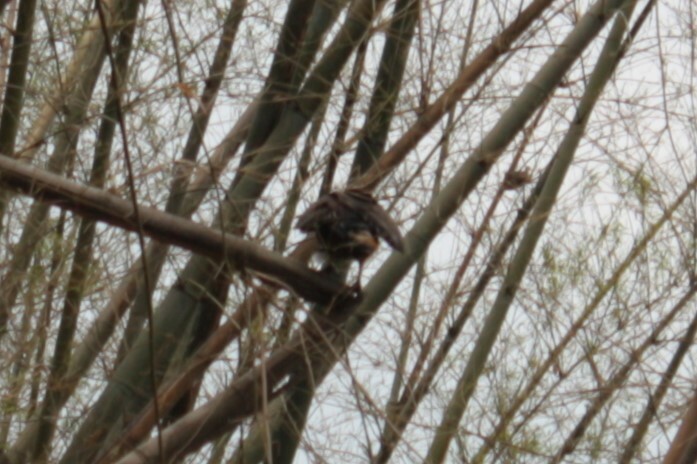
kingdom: Animalia
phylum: Chordata
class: Aves
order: Accipitriformes
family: Accipitridae
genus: Spilornis
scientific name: Spilornis cheela
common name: Crested serpent eagle
